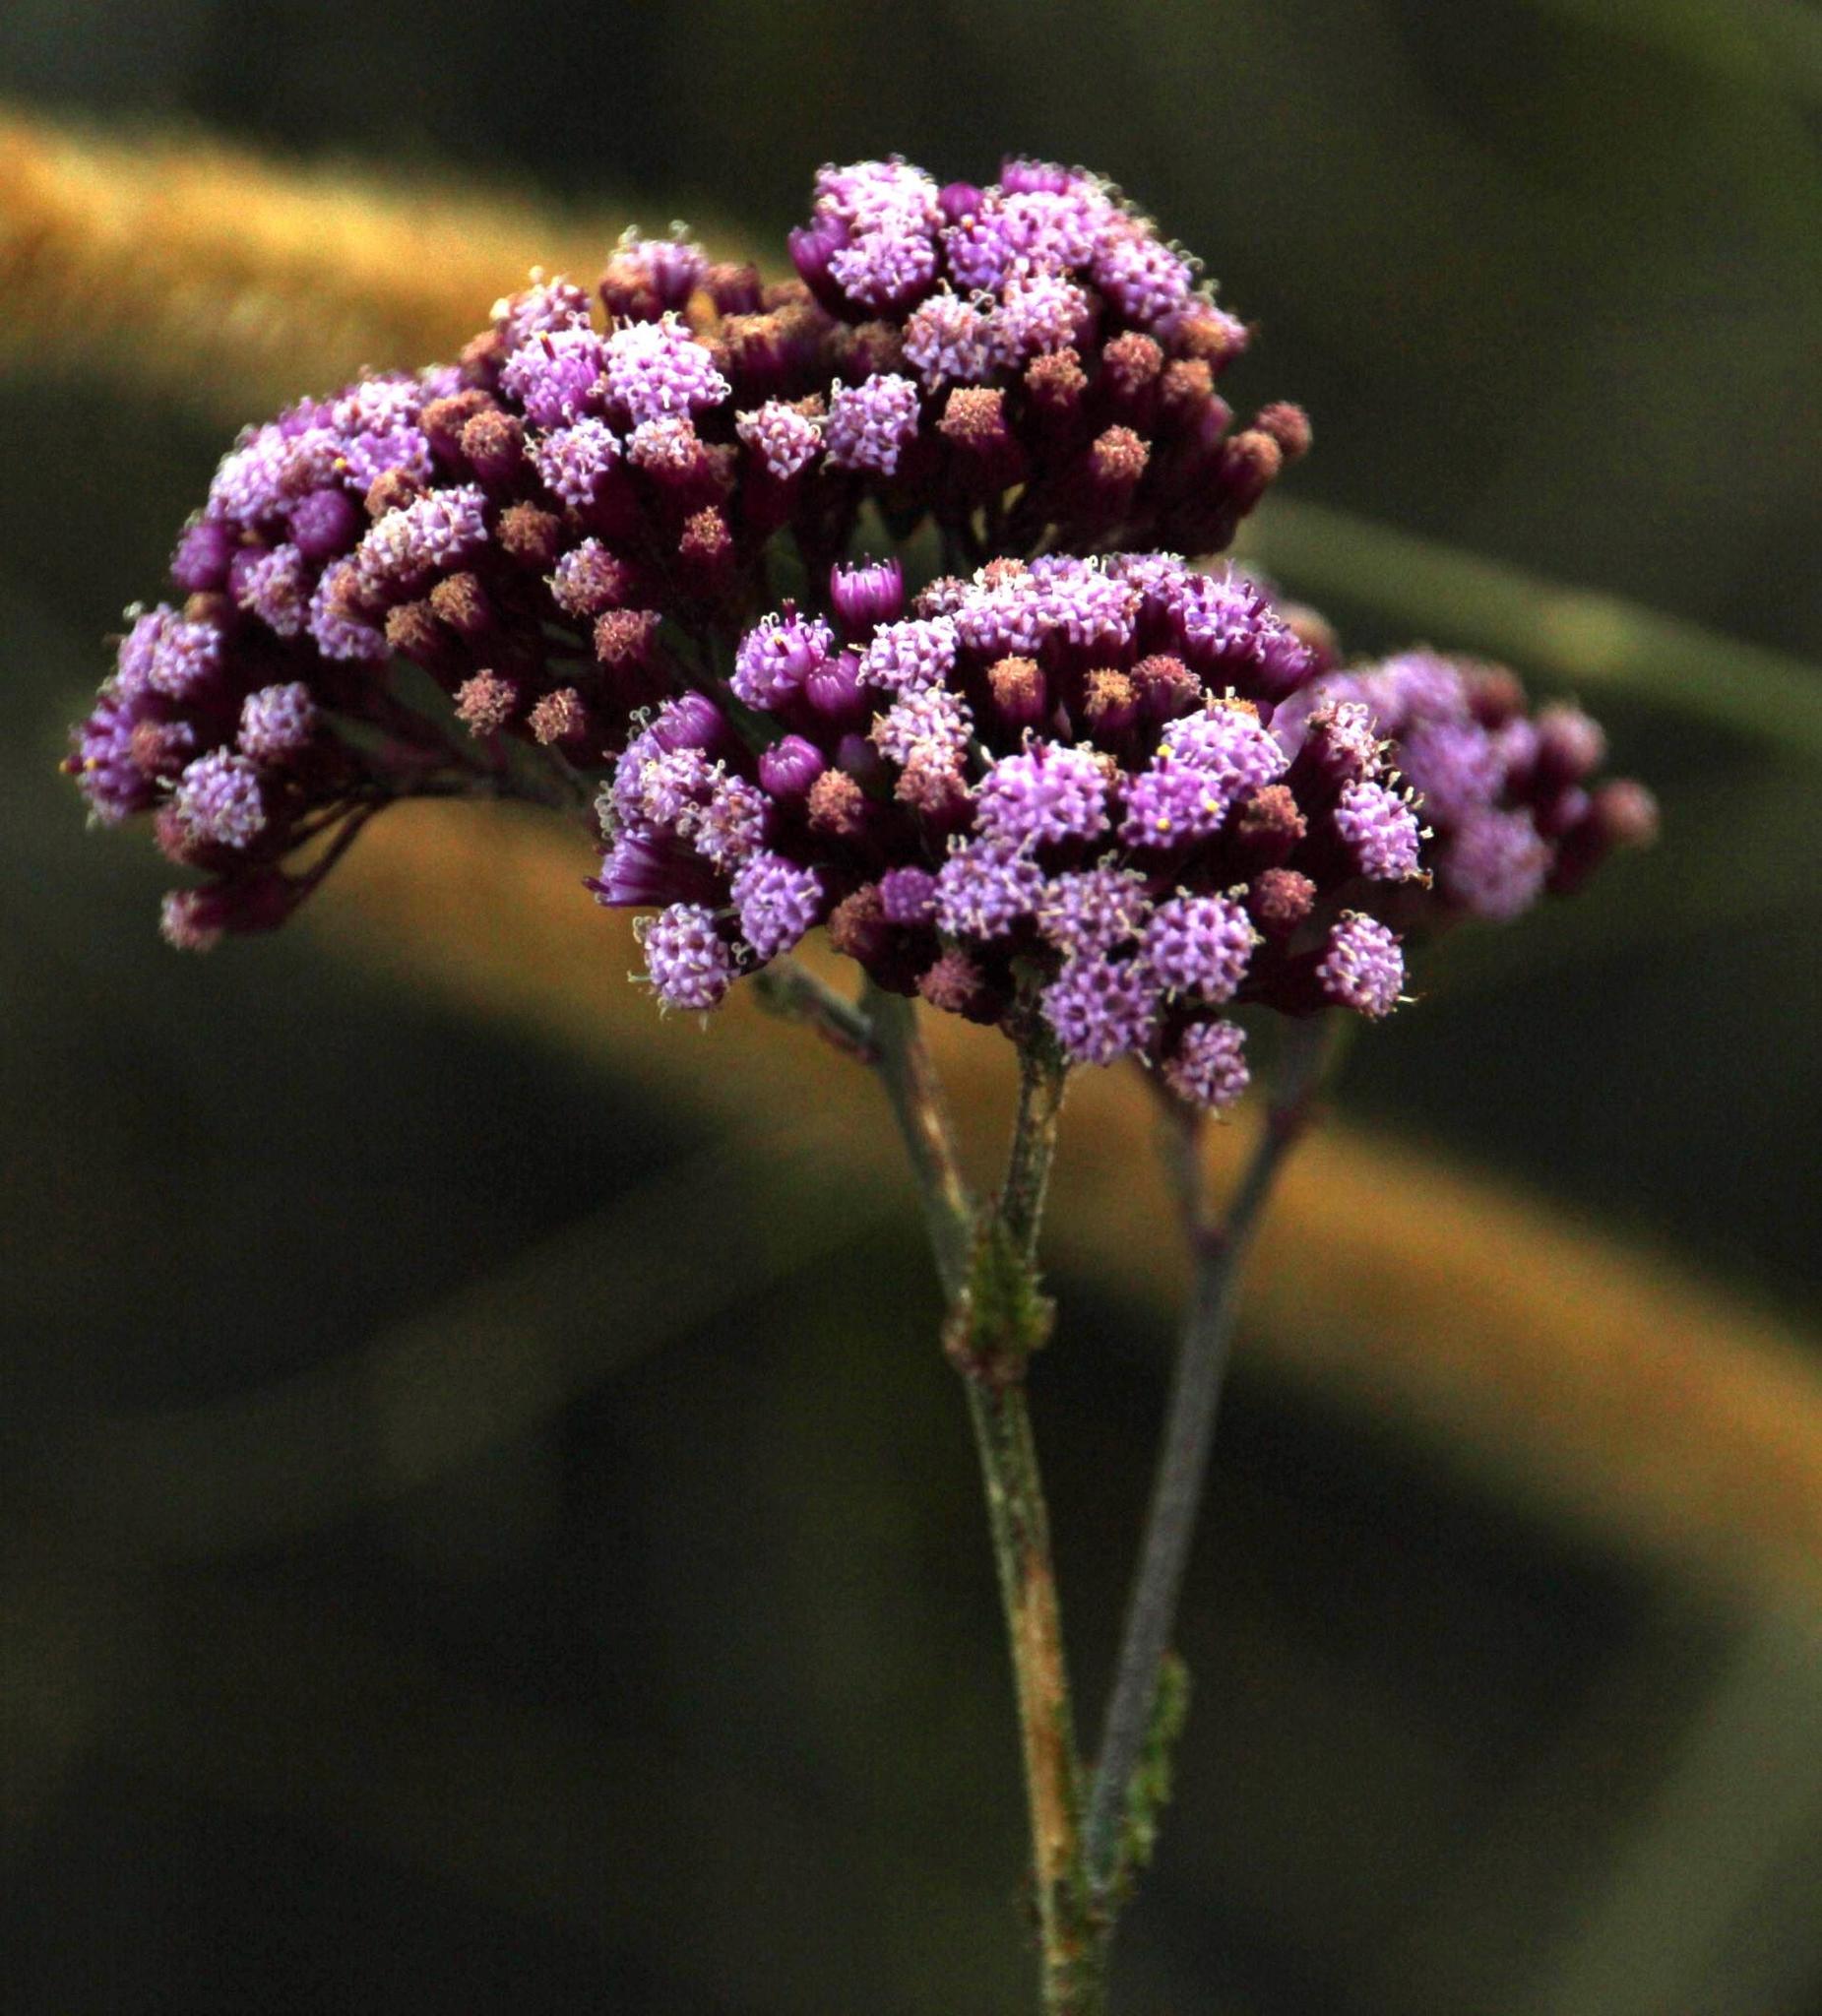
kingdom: Plantae
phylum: Tracheophyta
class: Magnoliopsida
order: Asterales
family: Asteraceae
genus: Senecio
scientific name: Senecio purpureus
